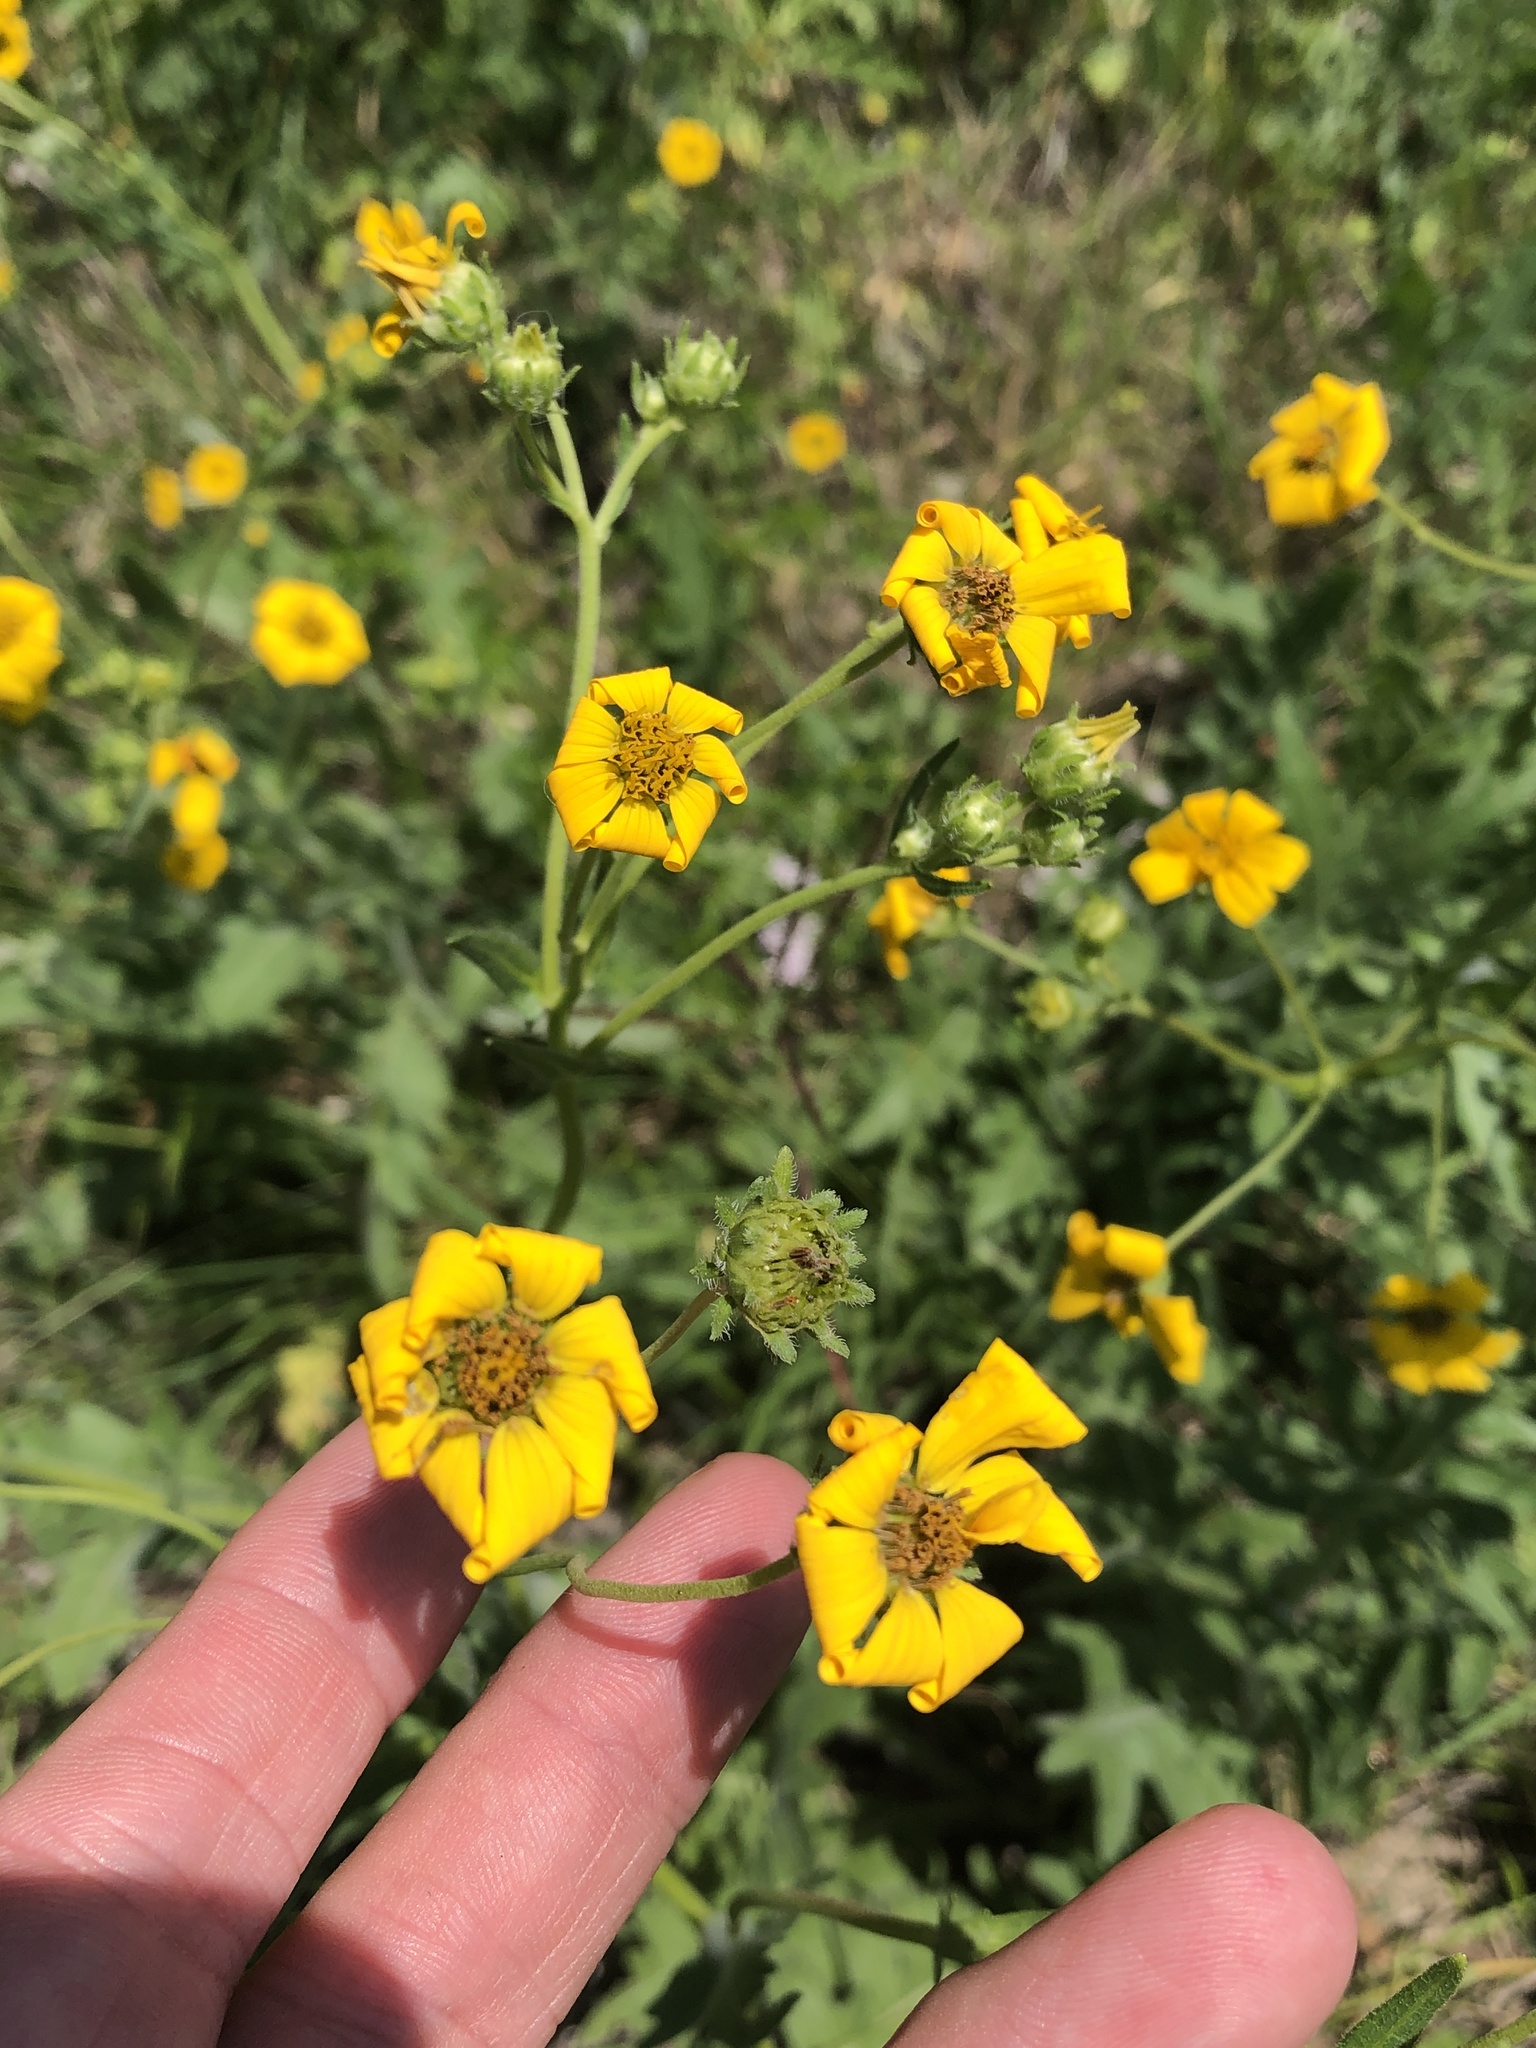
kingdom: Plantae
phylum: Tracheophyta
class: Magnoliopsida
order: Asterales
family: Asteraceae
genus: Engelmannia
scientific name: Engelmannia peristenia
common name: Engelmann's daisy
